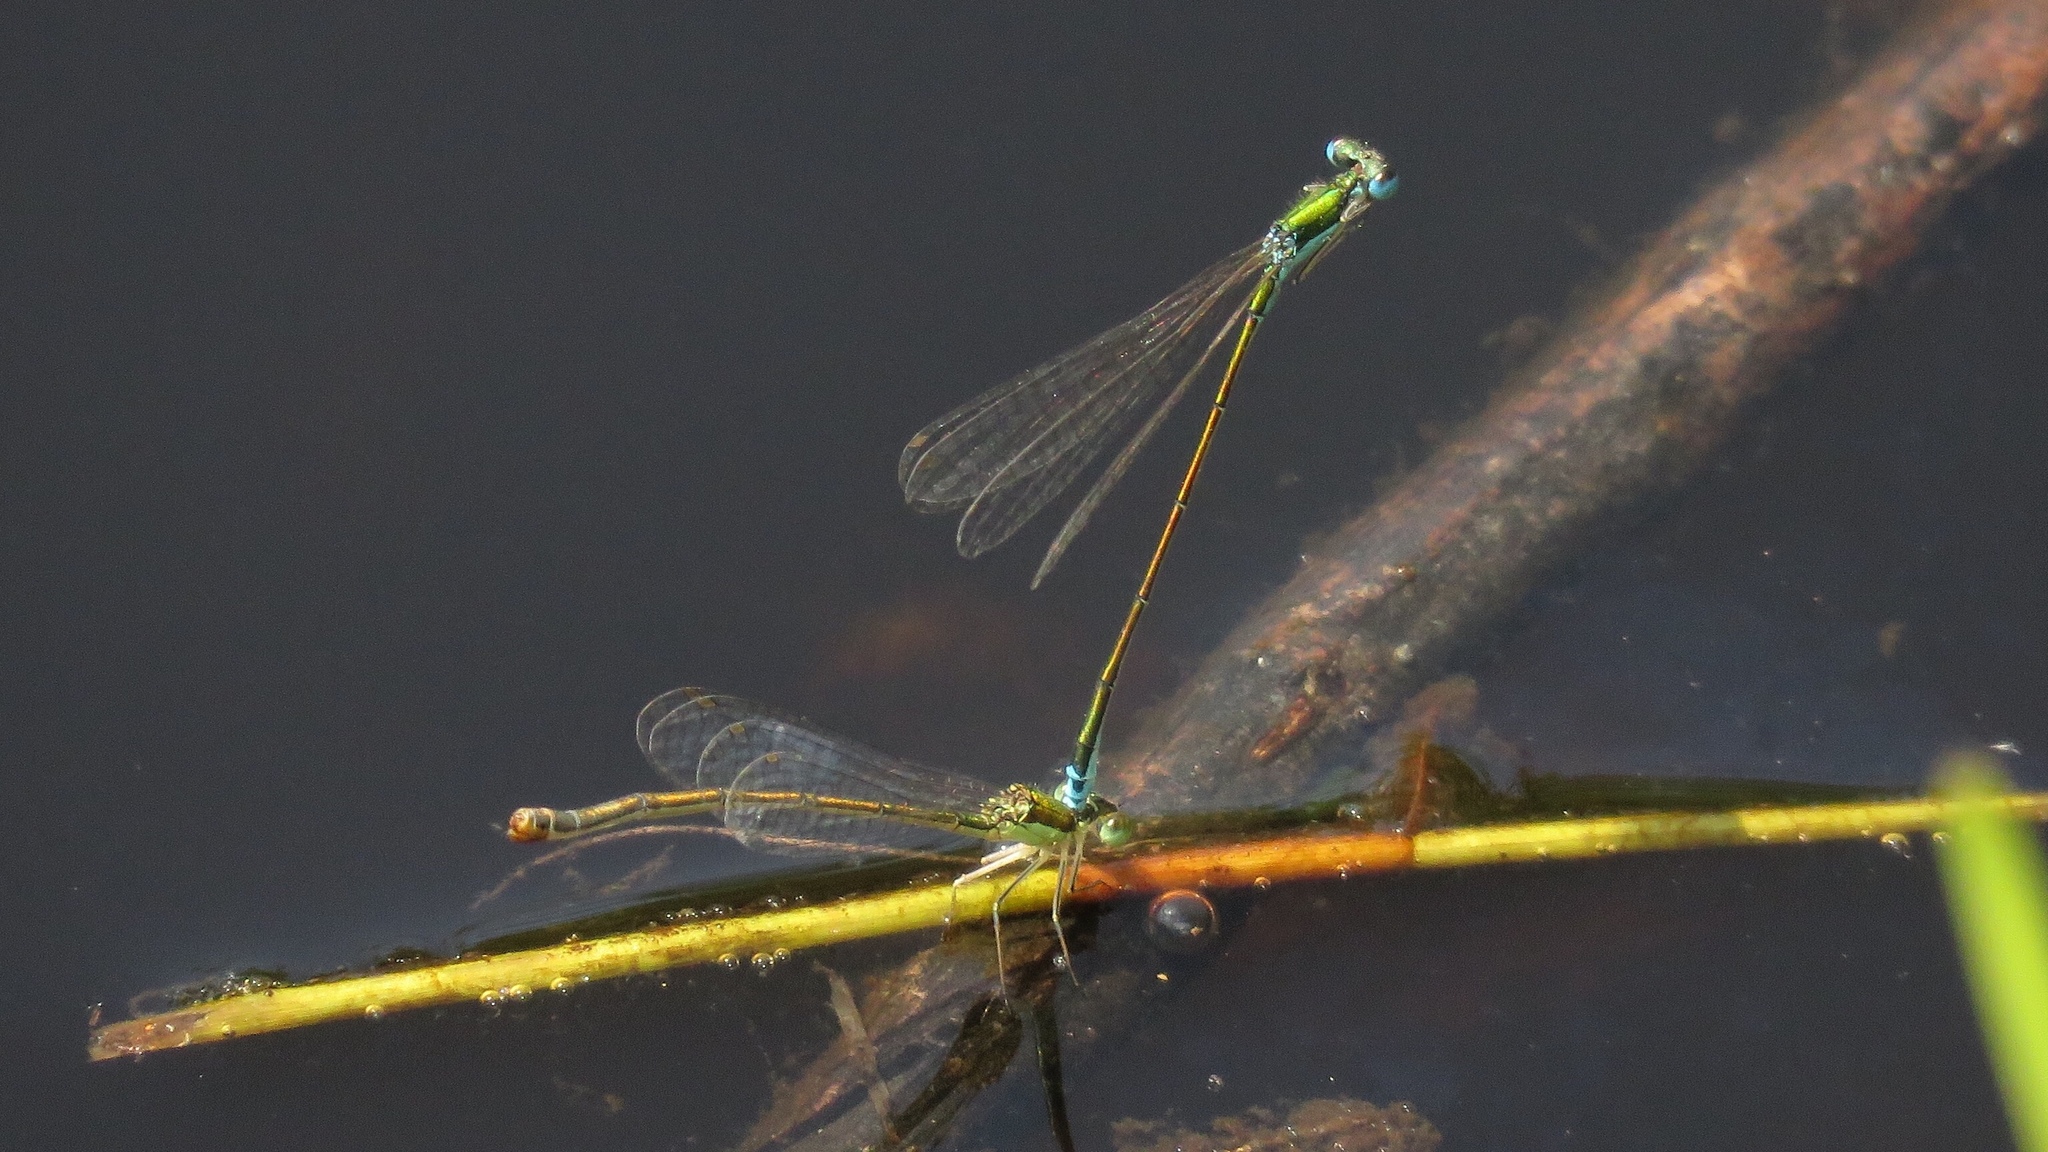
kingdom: Animalia
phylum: Arthropoda
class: Insecta
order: Odonata
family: Coenagrionidae
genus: Nehalennia
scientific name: Nehalennia irene
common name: Sedge sprite
